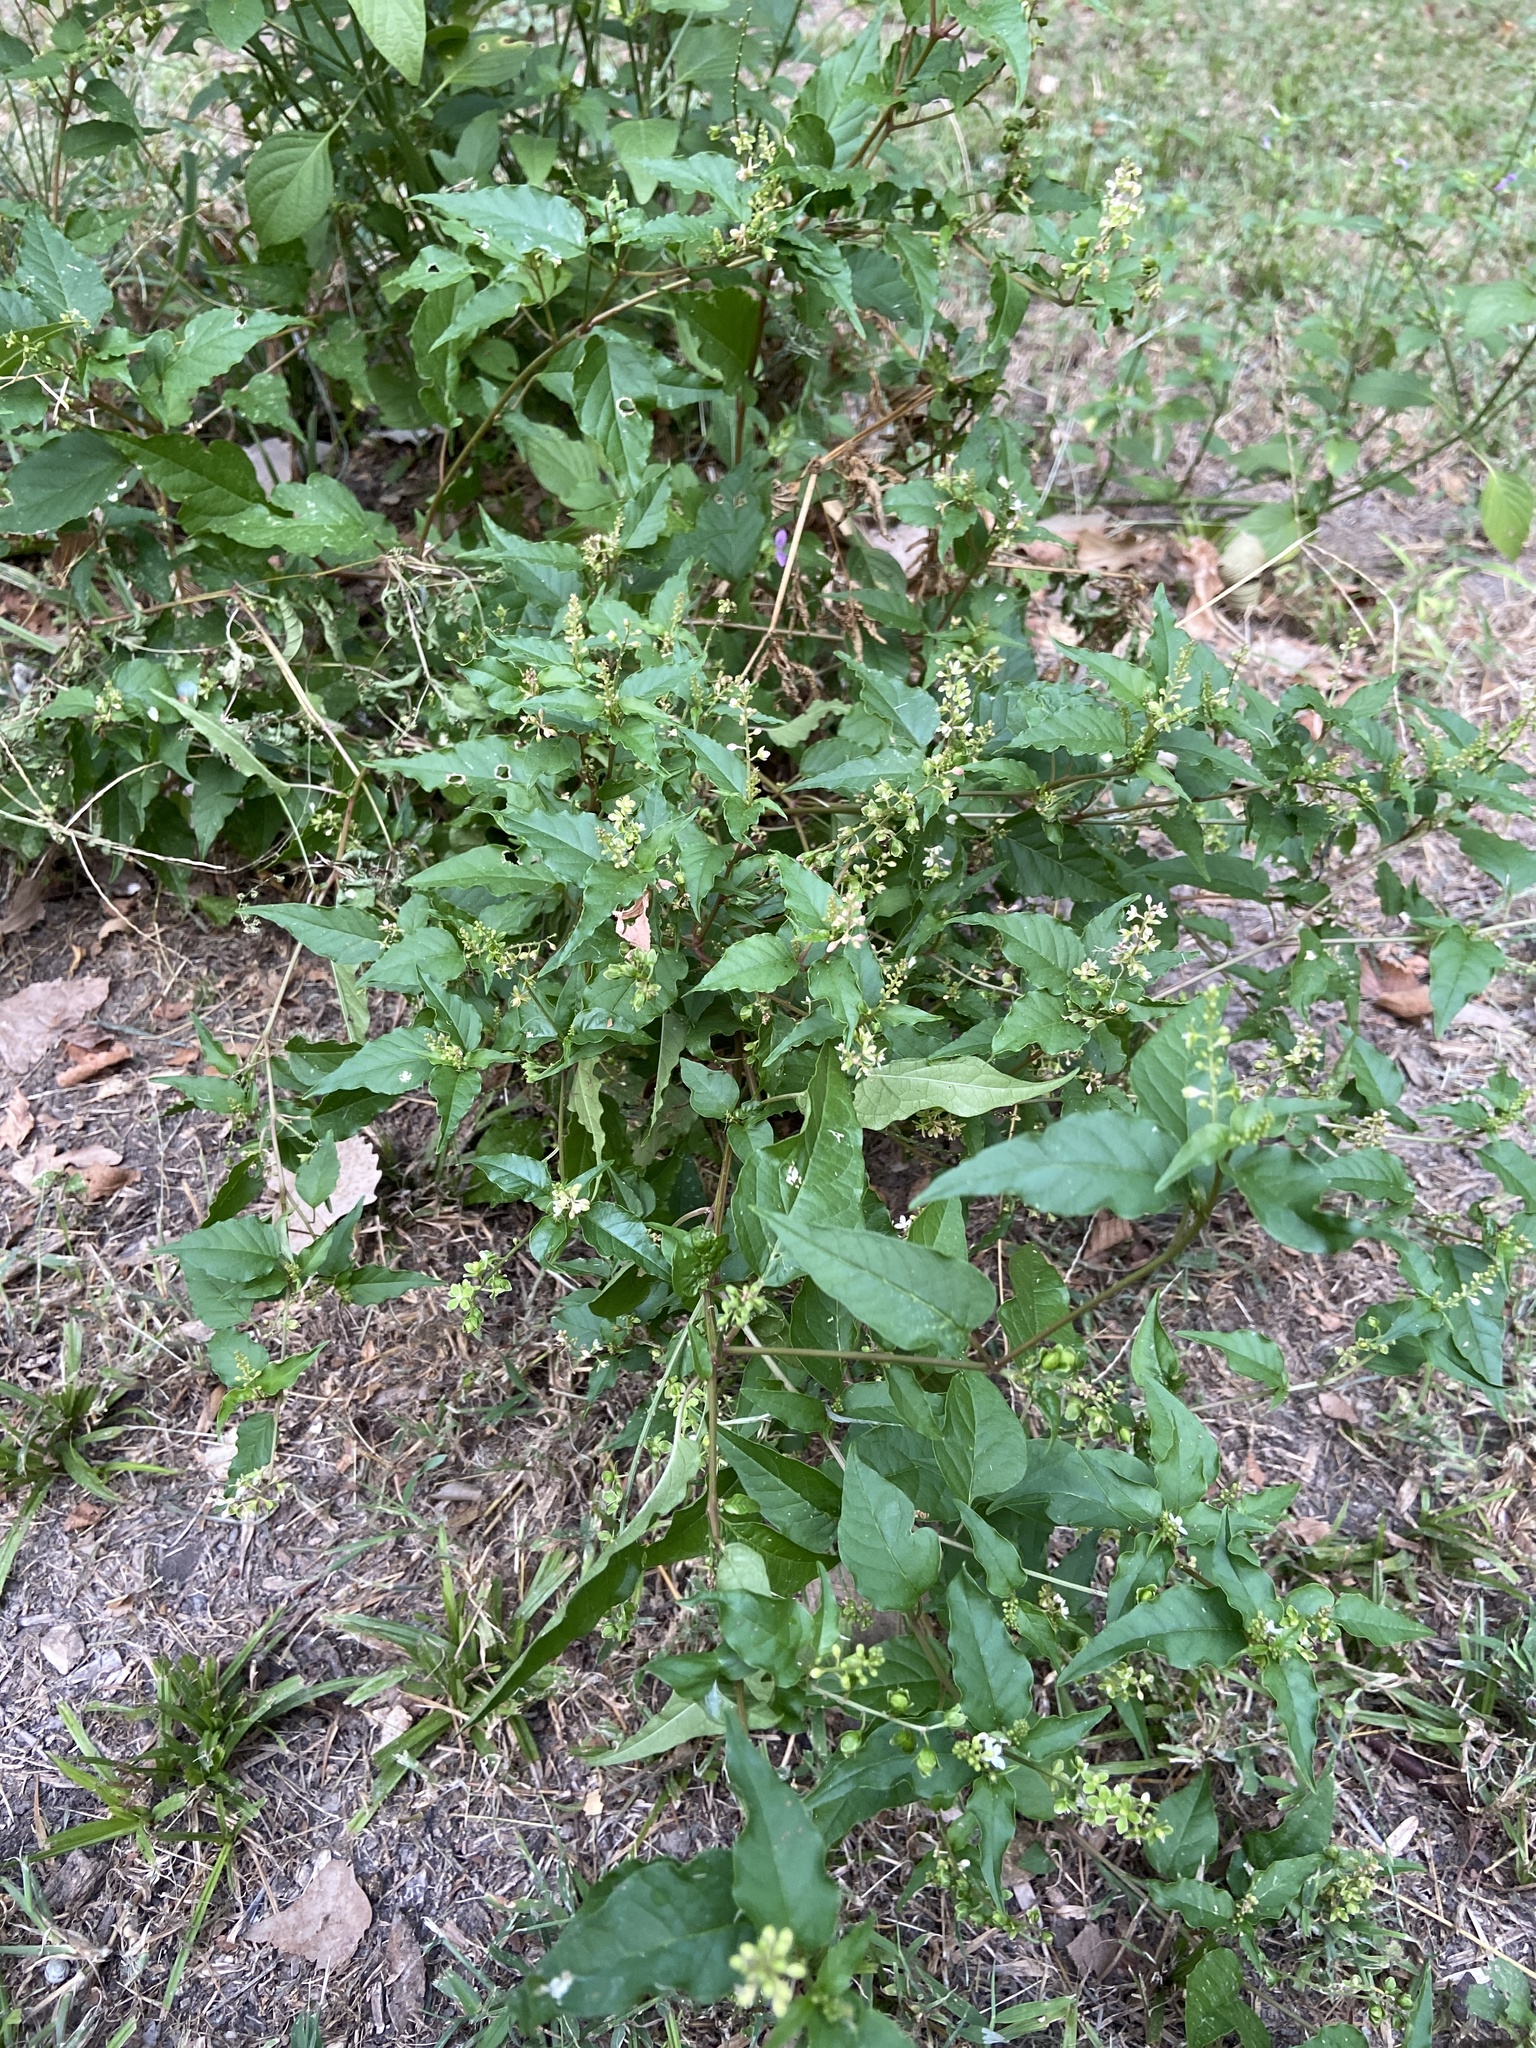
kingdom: Plantae
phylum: Tracheophyta
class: Magnoliopsida
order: Caryophyllales
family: Phytolaccaceae
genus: Rivina
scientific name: Rivina humilis
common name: Rougeplant
